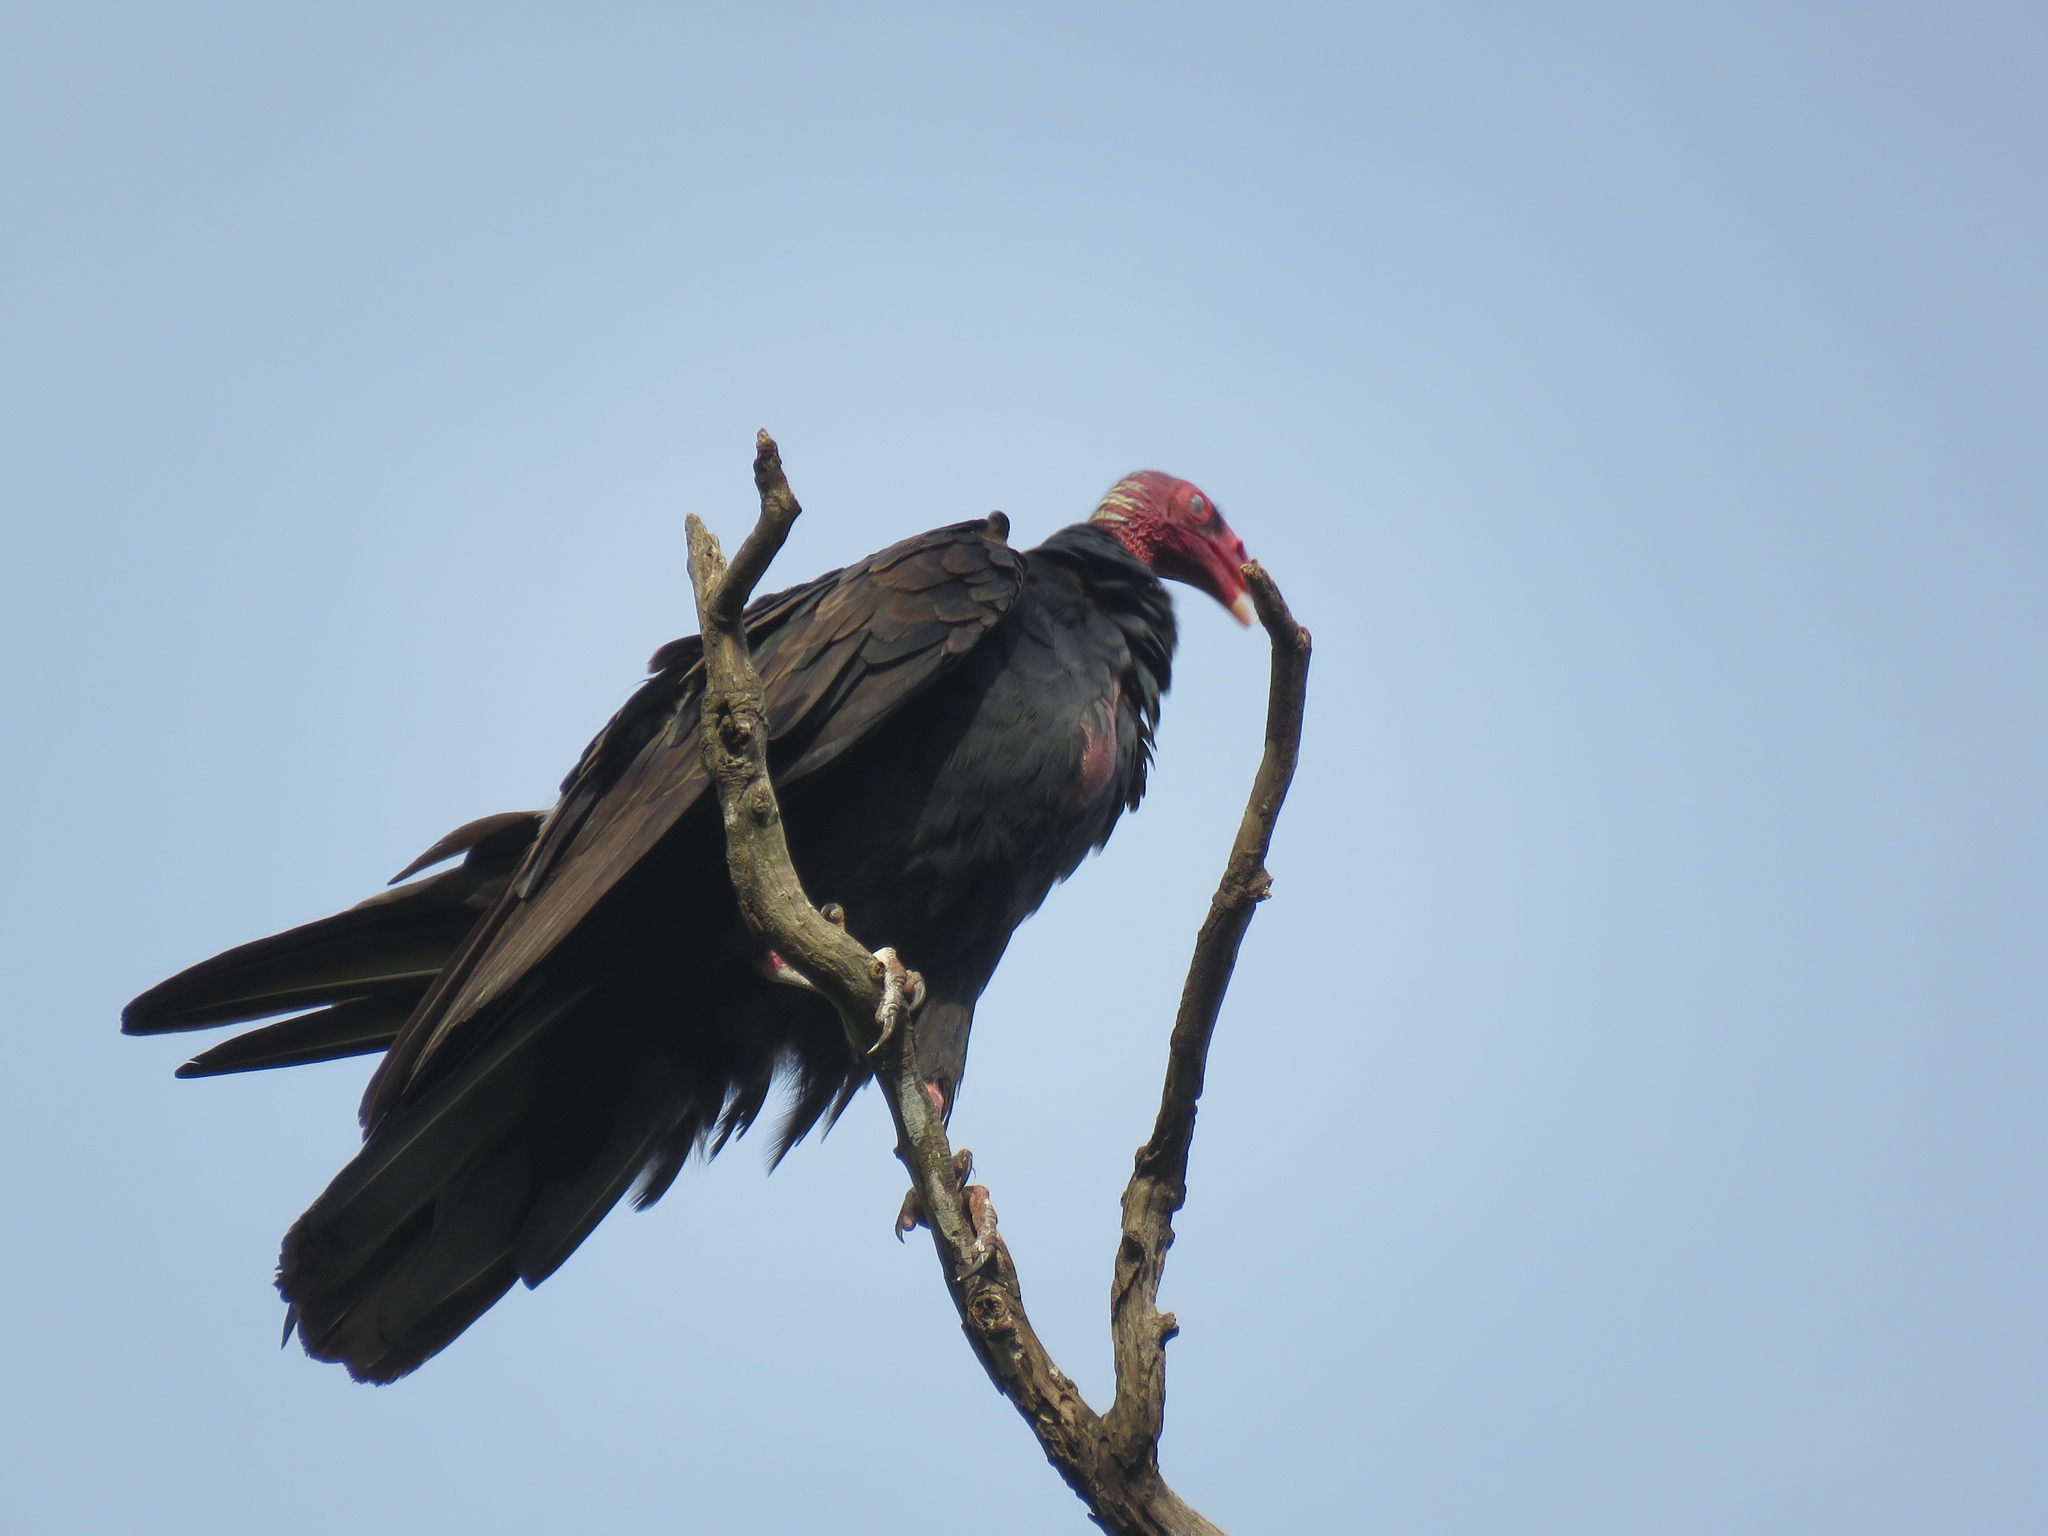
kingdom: Animalia
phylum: Chordata
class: Aves
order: Accipitriformes
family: Cathartidae
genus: Cathartes
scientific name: Cathartes aura
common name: Turkey vulture
